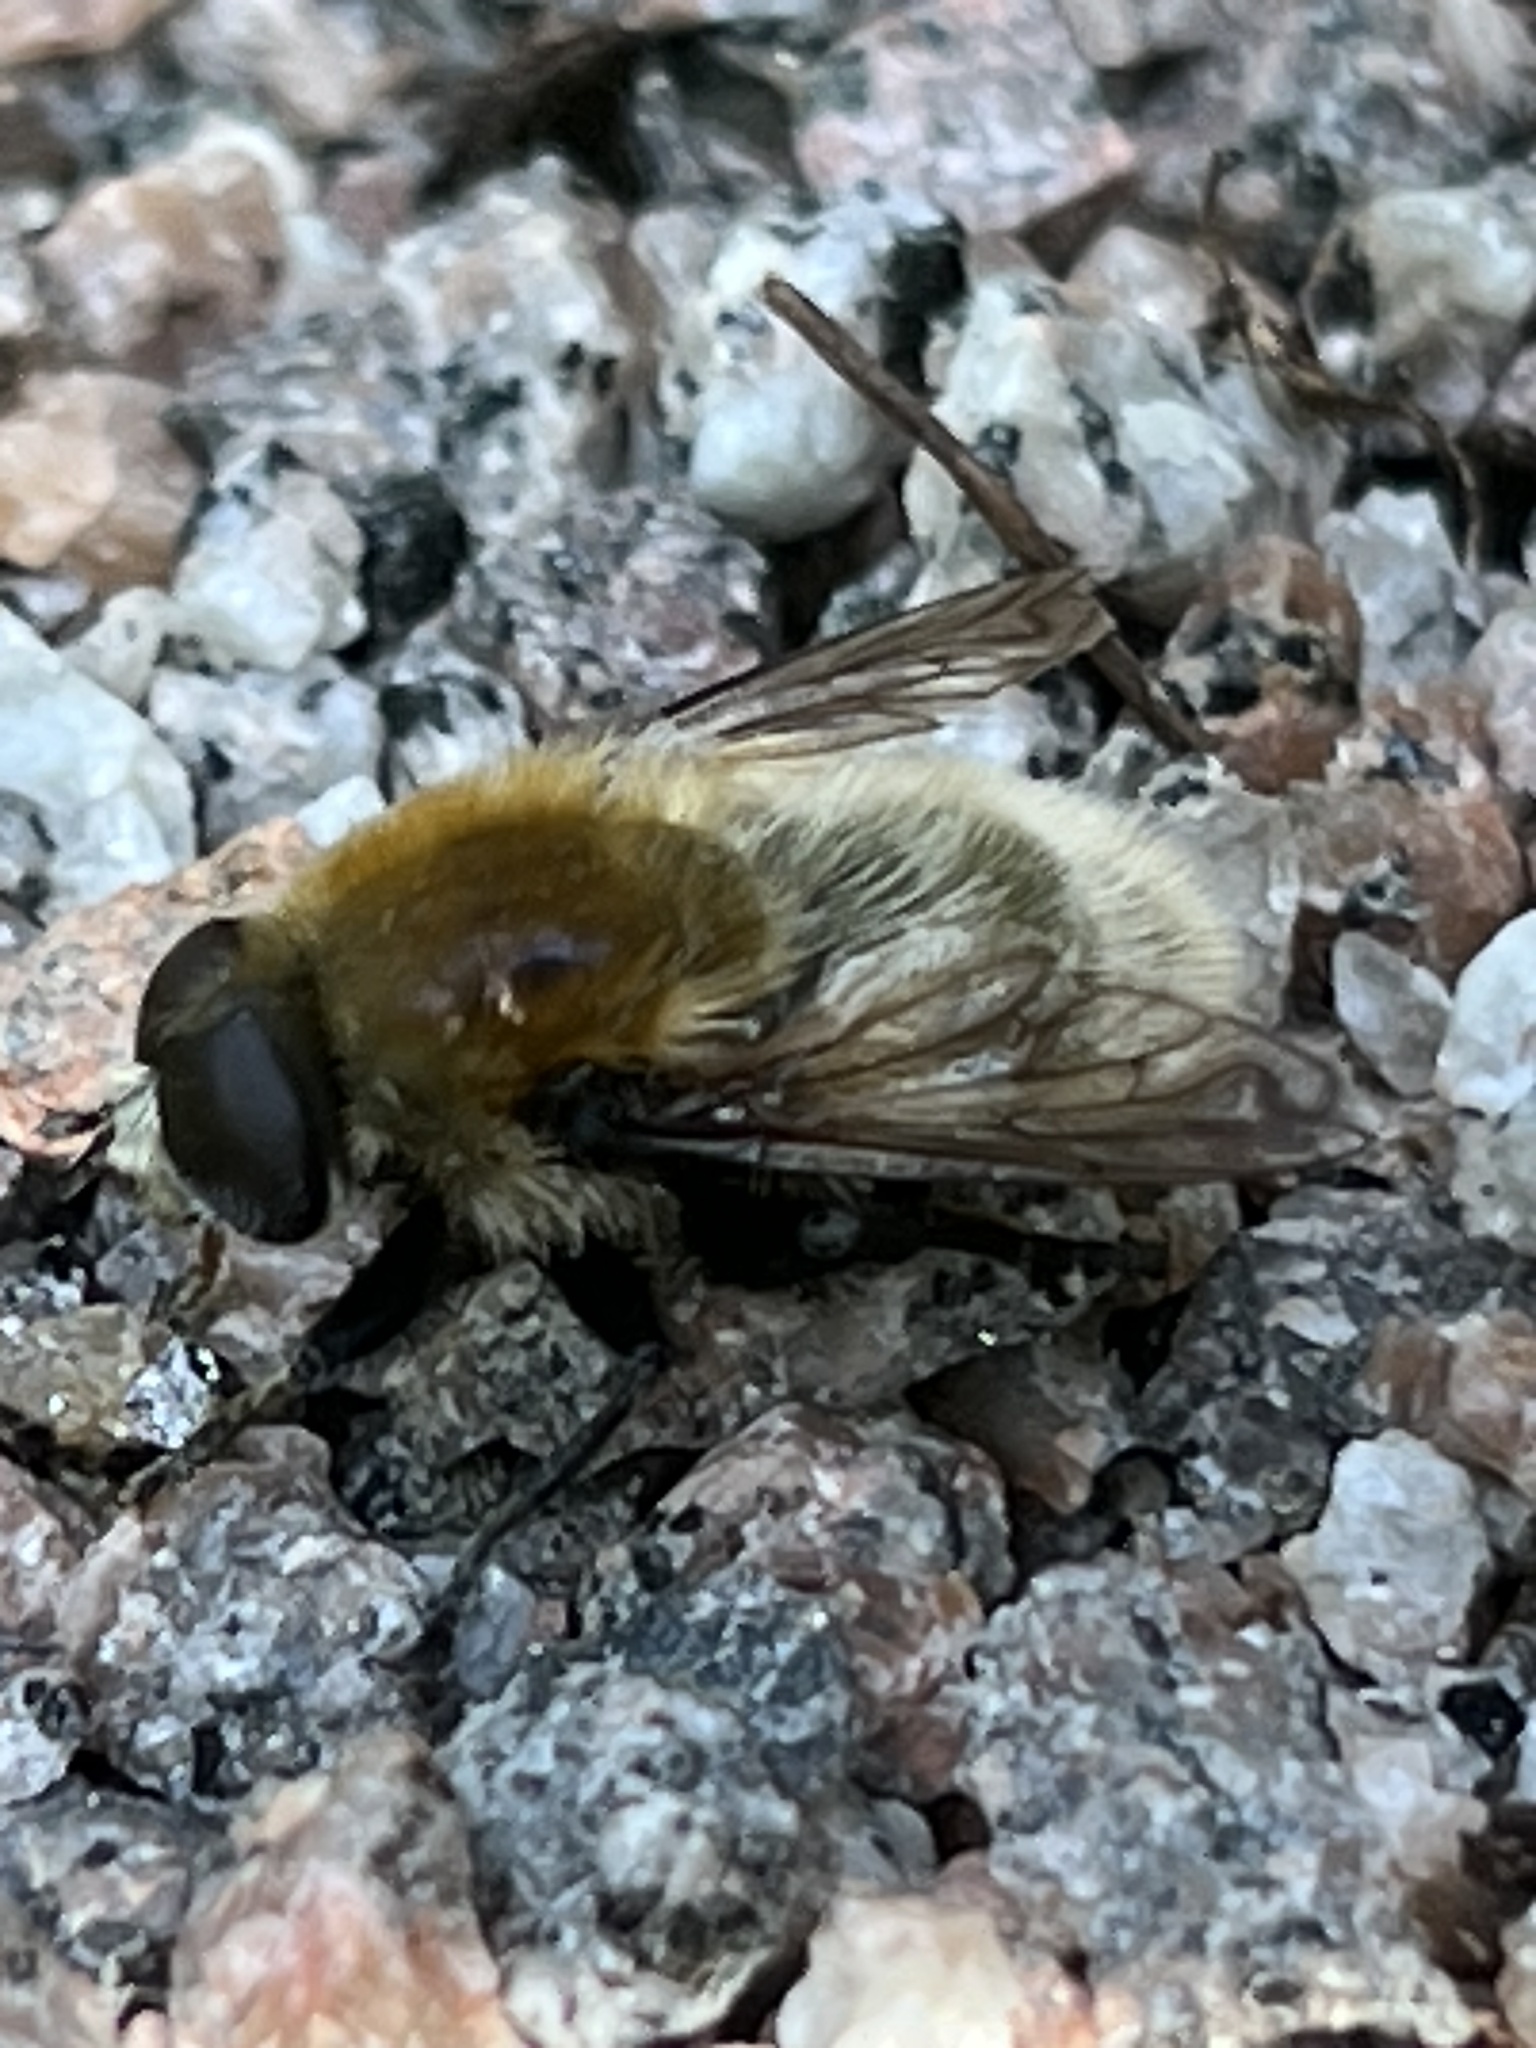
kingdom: Animalia
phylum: Arthropoda
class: Insecta
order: Diptera
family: Syrphidae
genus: Merodon
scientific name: Merodon equestris
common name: Greater bulb-fly
